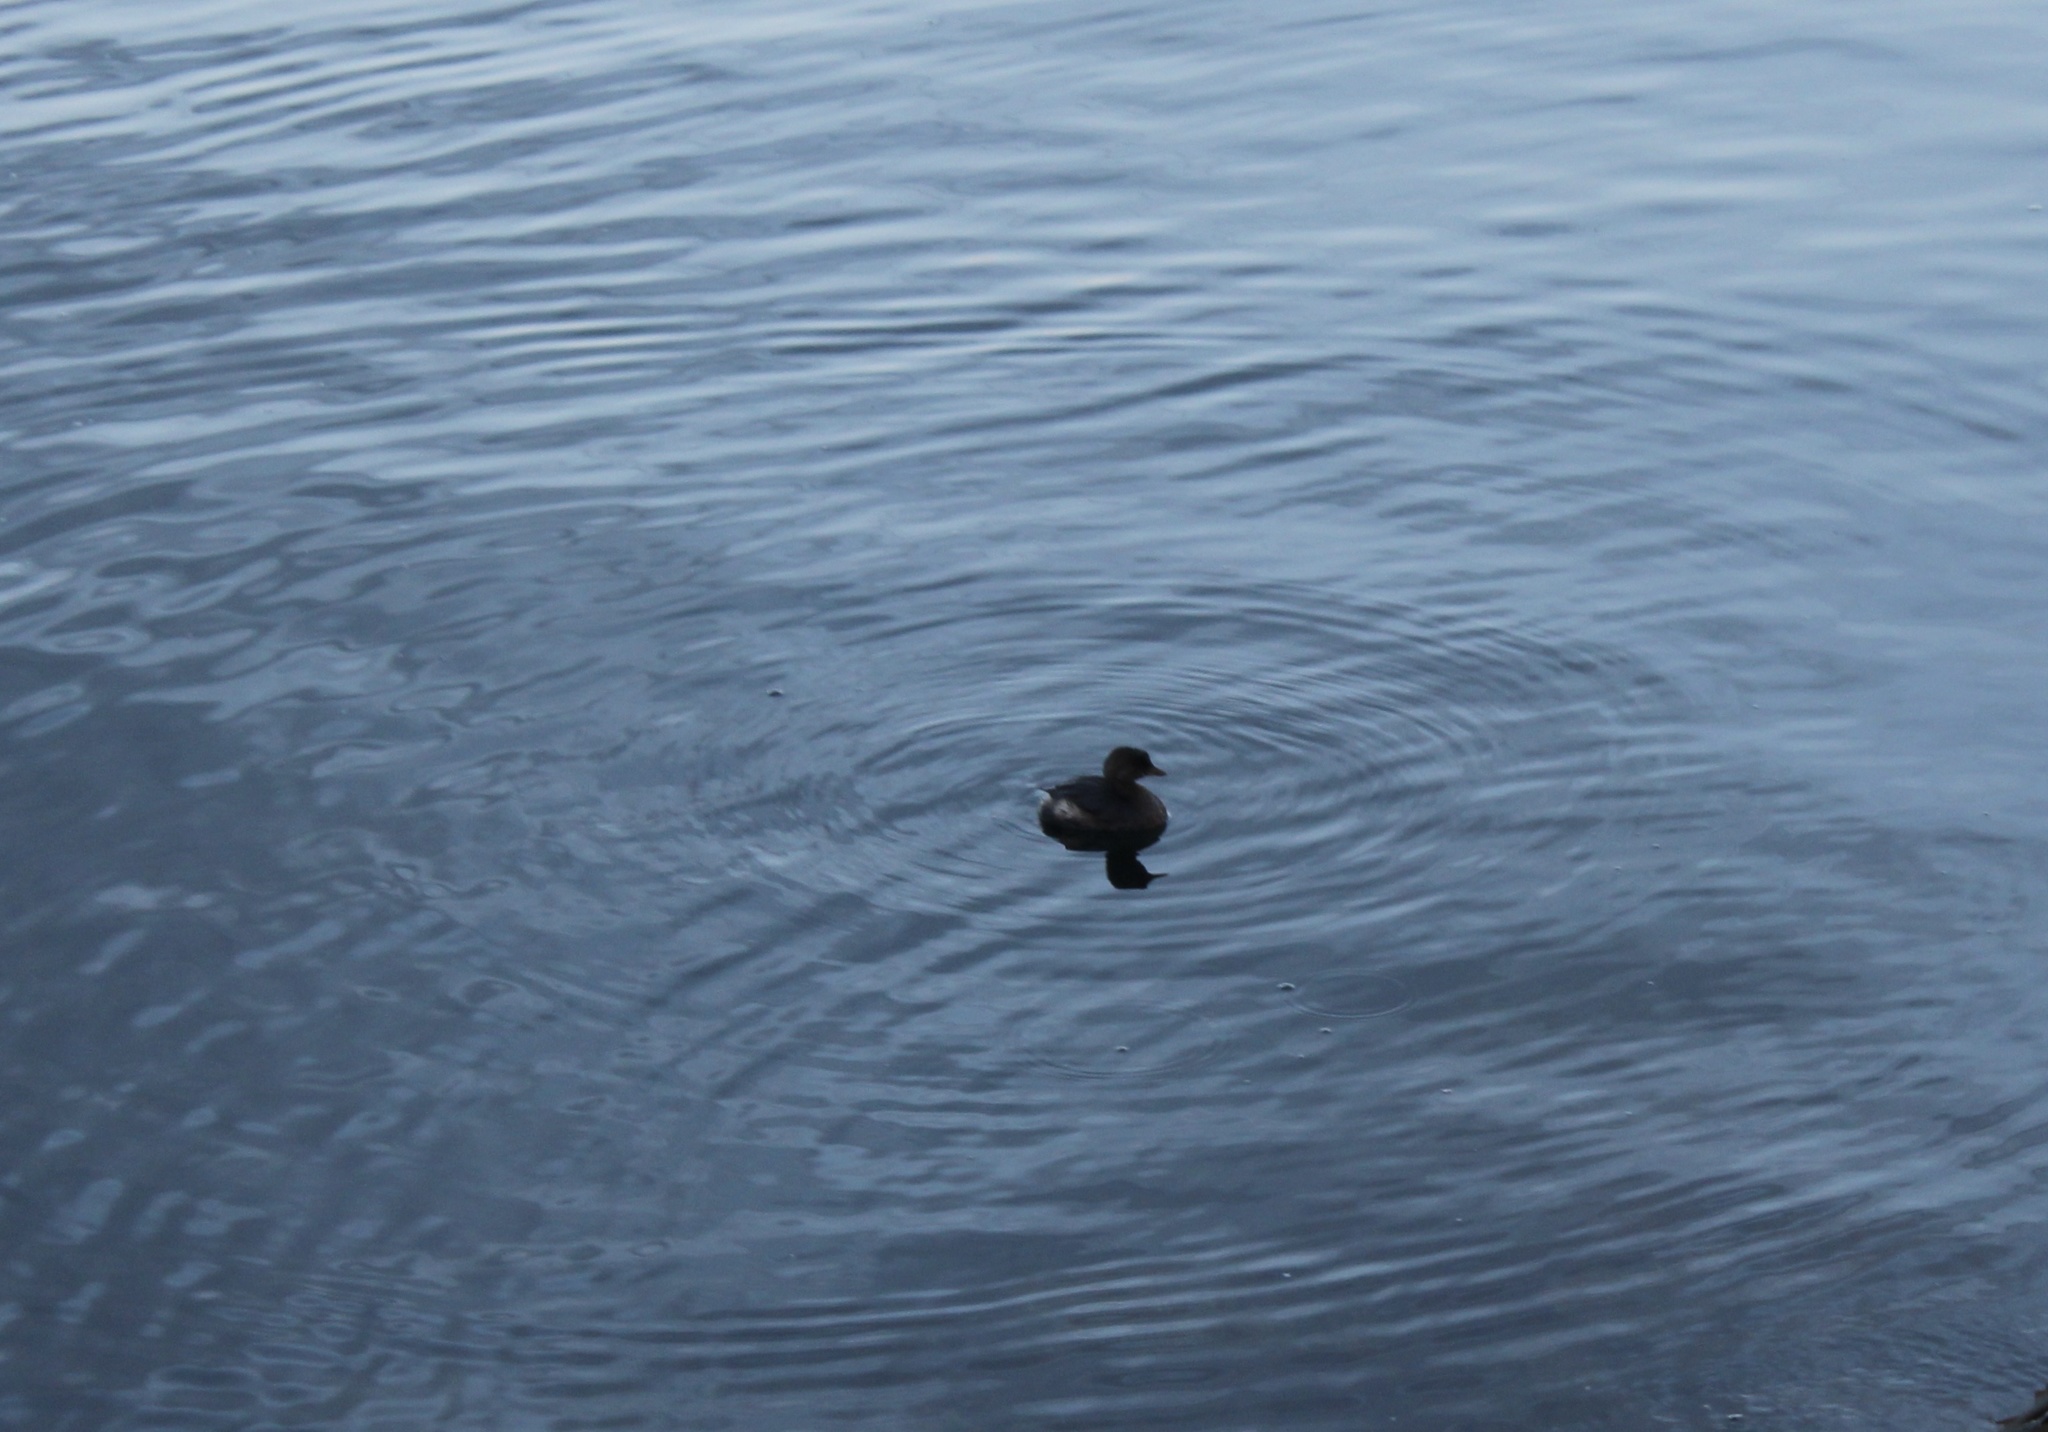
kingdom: Animalia
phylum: Chordata
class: Aves
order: Podicipediformes
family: Podicipedidae
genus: Podilymbus
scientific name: Podilymbus podiceps
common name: Pied-billed grebe
